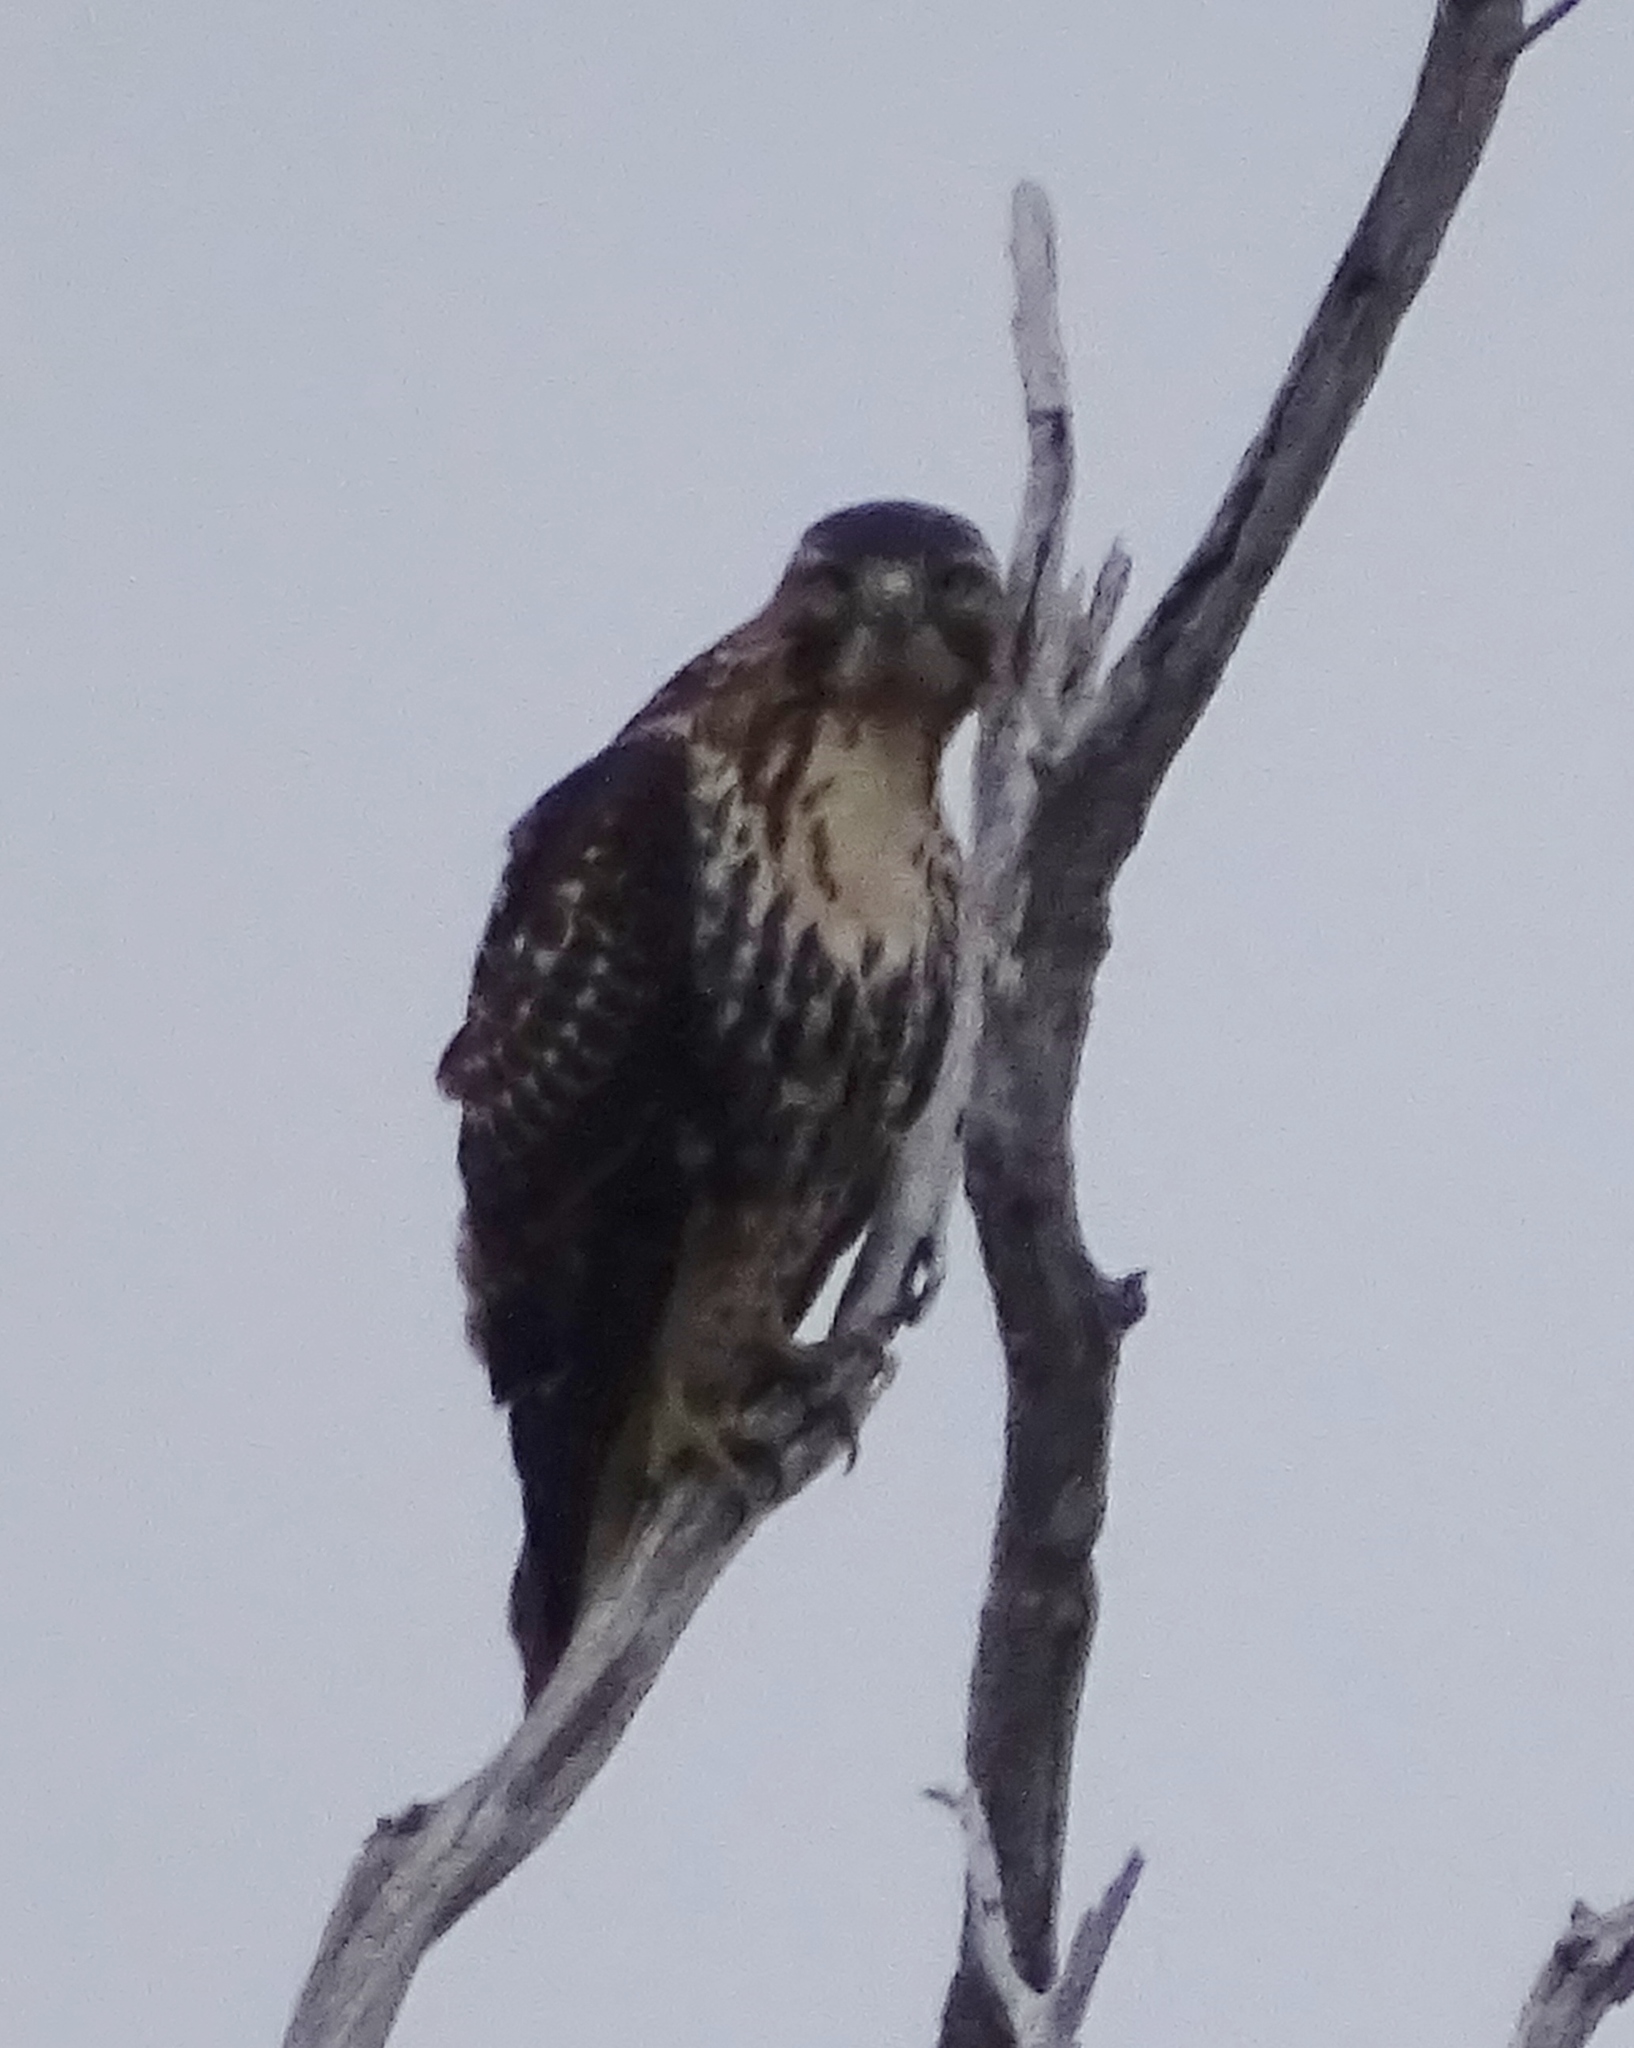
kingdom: Animalia
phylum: Chordata
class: Aves
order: Accipitriformes
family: Accipitridae
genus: Buteo
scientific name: Buteo jamaicensis
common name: Red-tailed hawk
